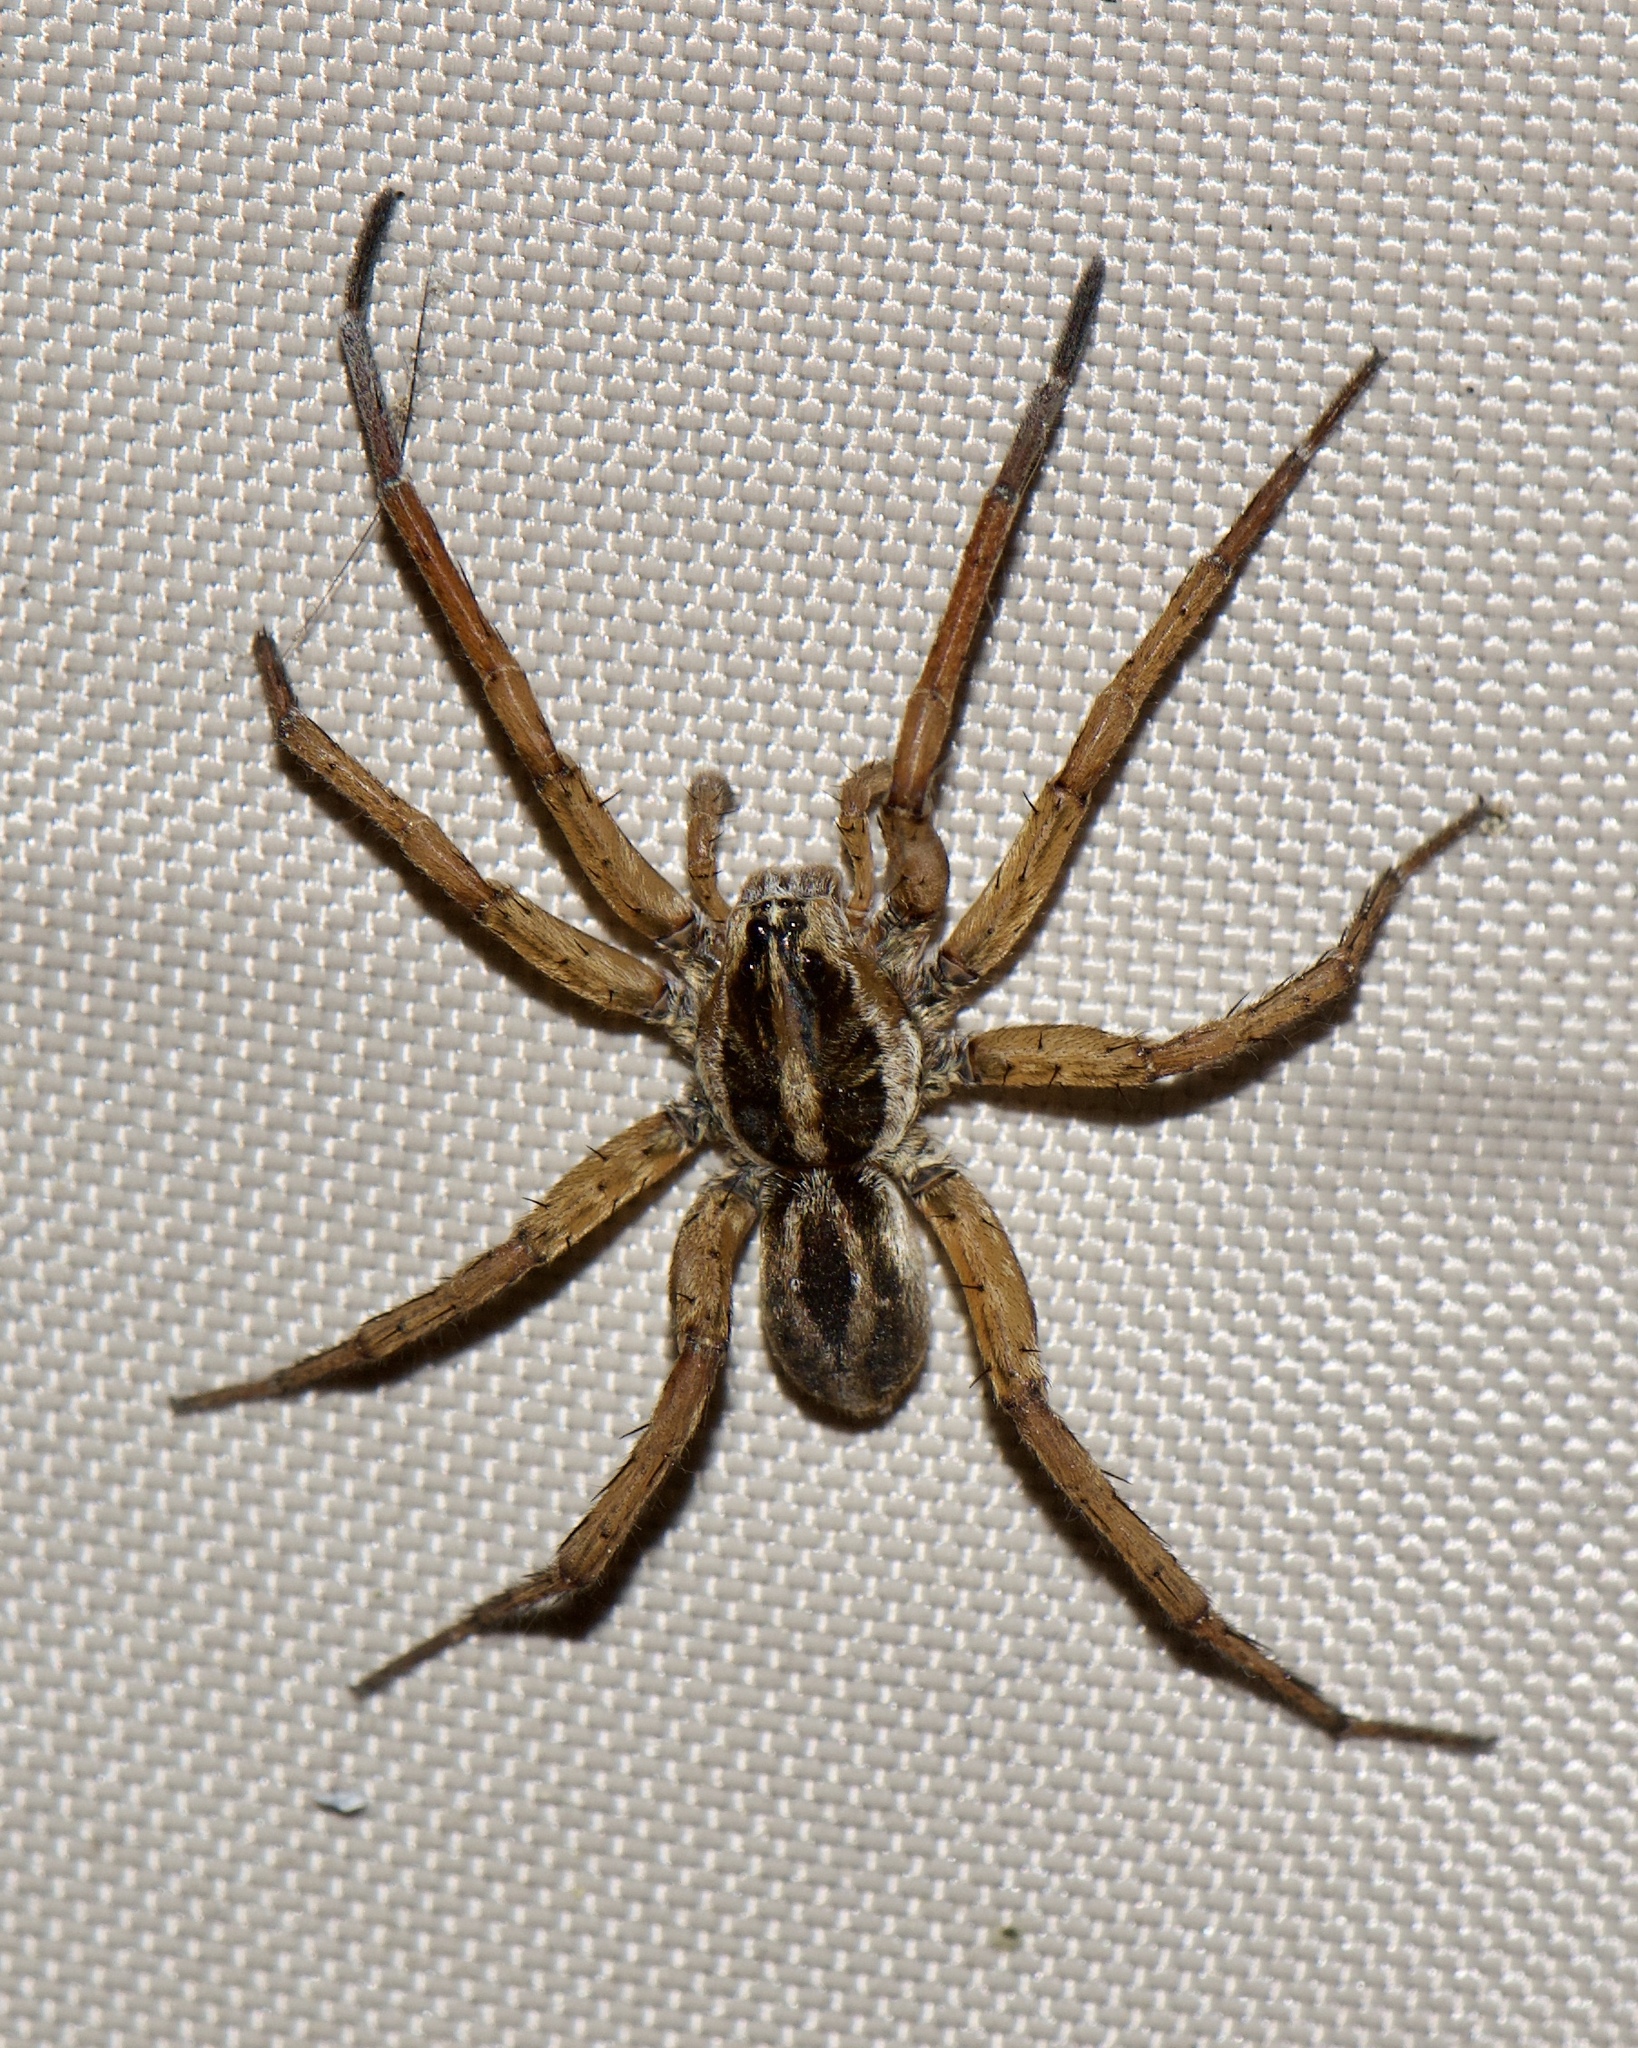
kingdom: Animalia
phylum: Arthropoda
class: Arachnida
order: Araneae
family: Lycosidae
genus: Tigrosa
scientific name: Tigrosa annexa
